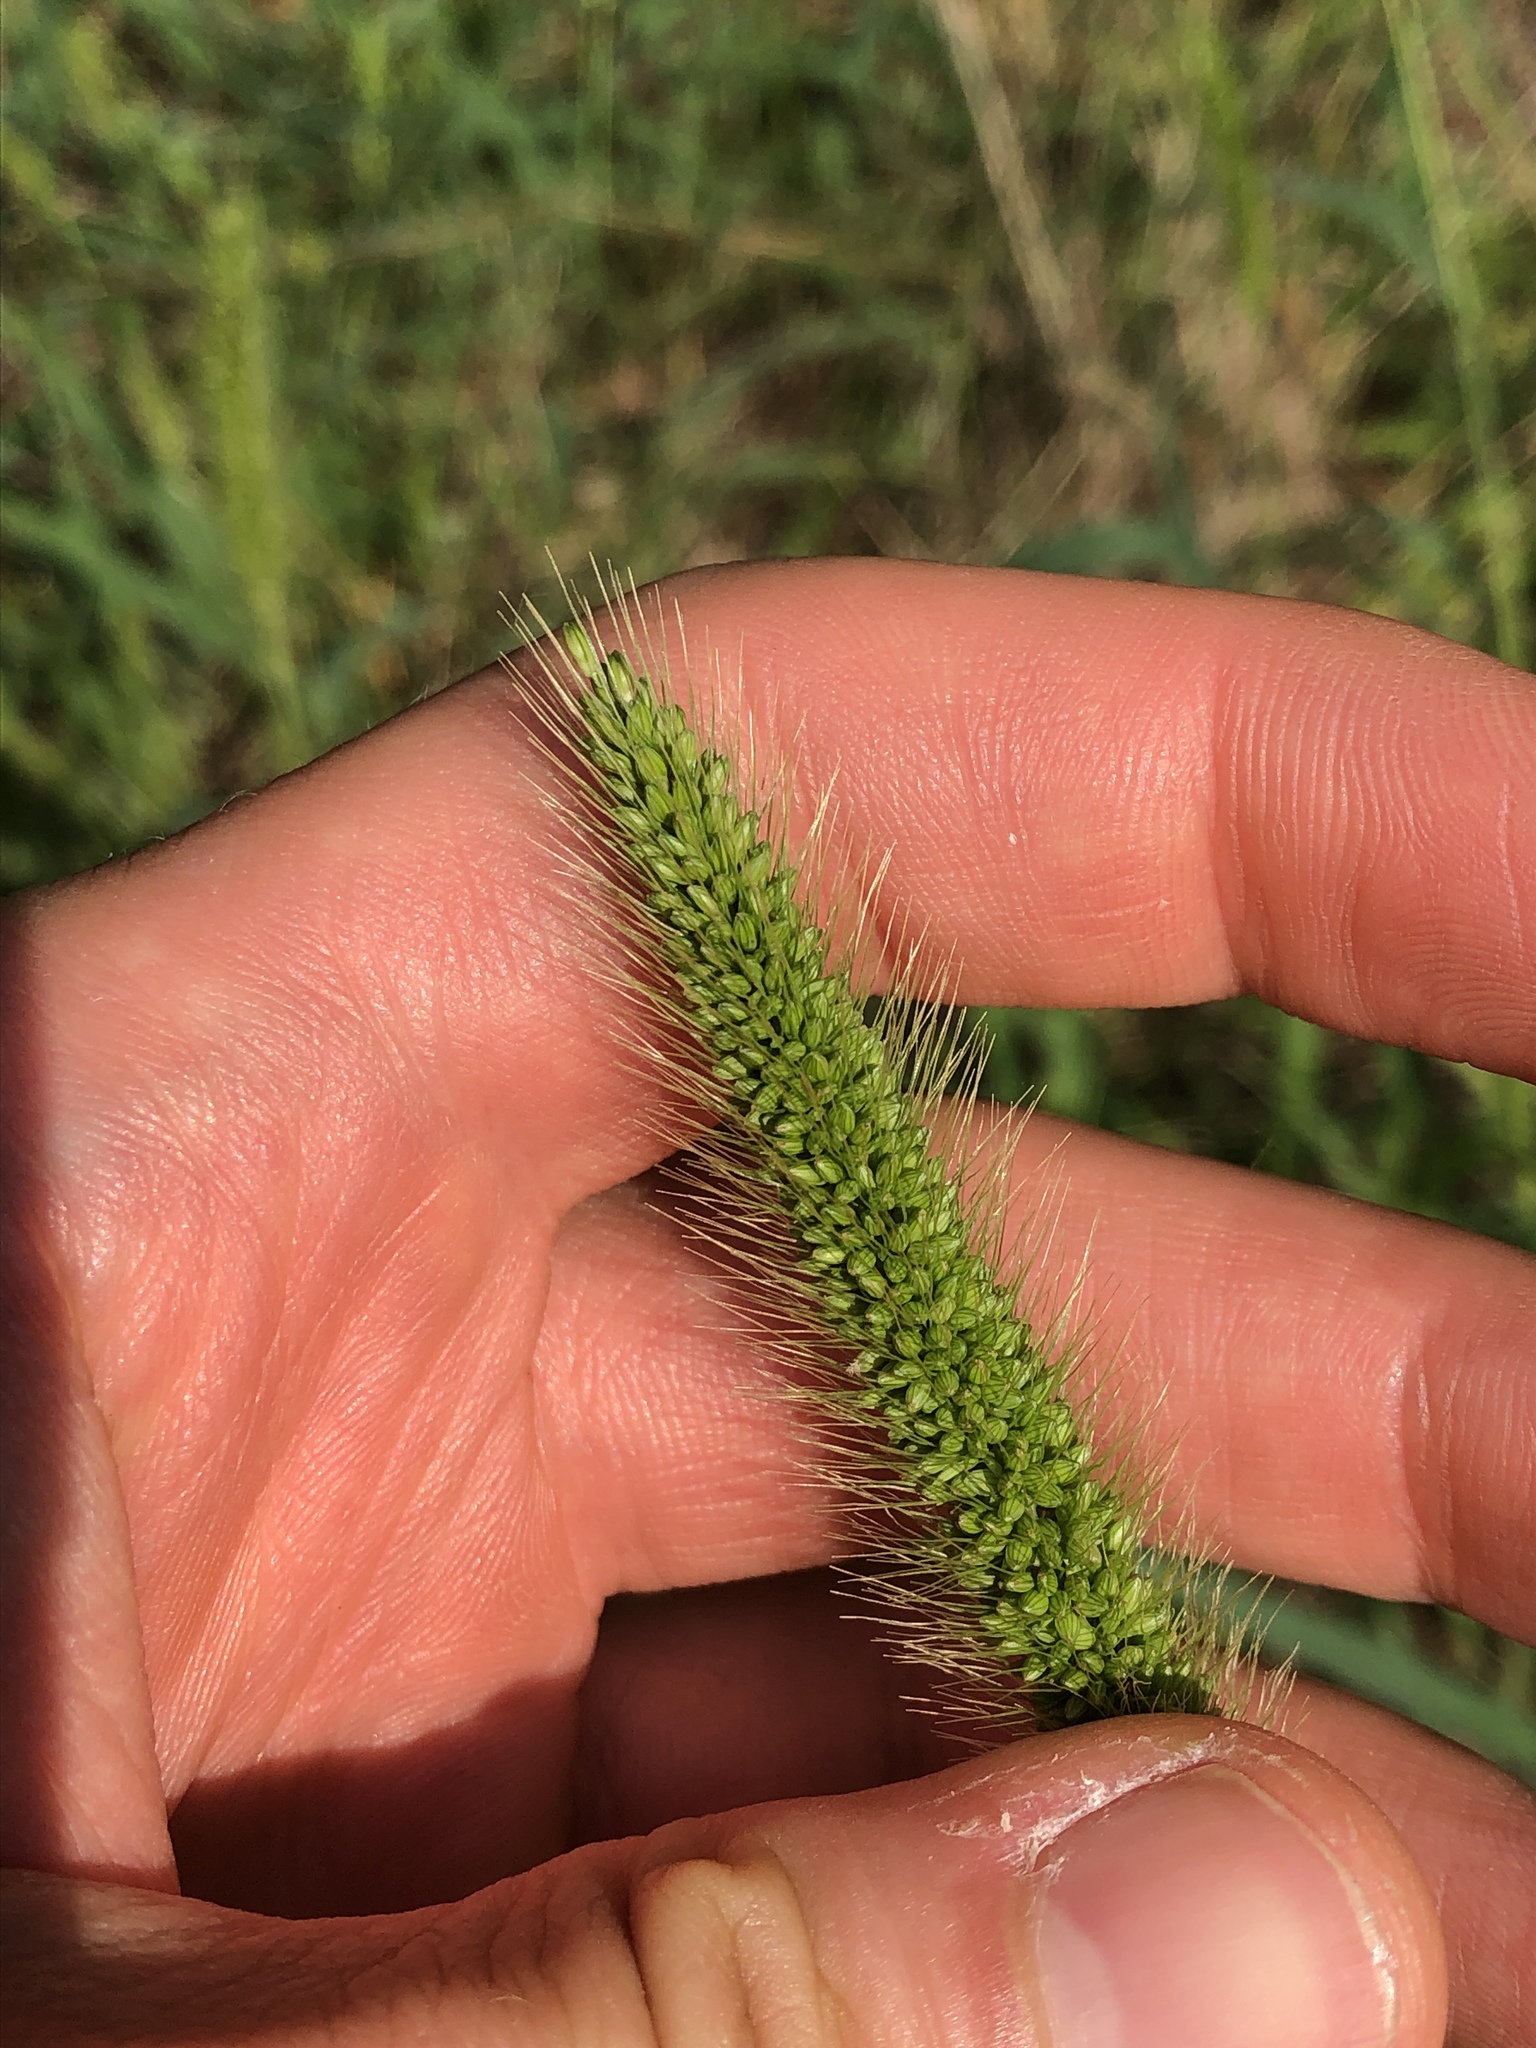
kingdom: Plantae
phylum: Tracheophyta
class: Liliopsida
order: Poales
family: Poaceae
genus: Setaria
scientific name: Setaria viridis
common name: Green bristlegrass
